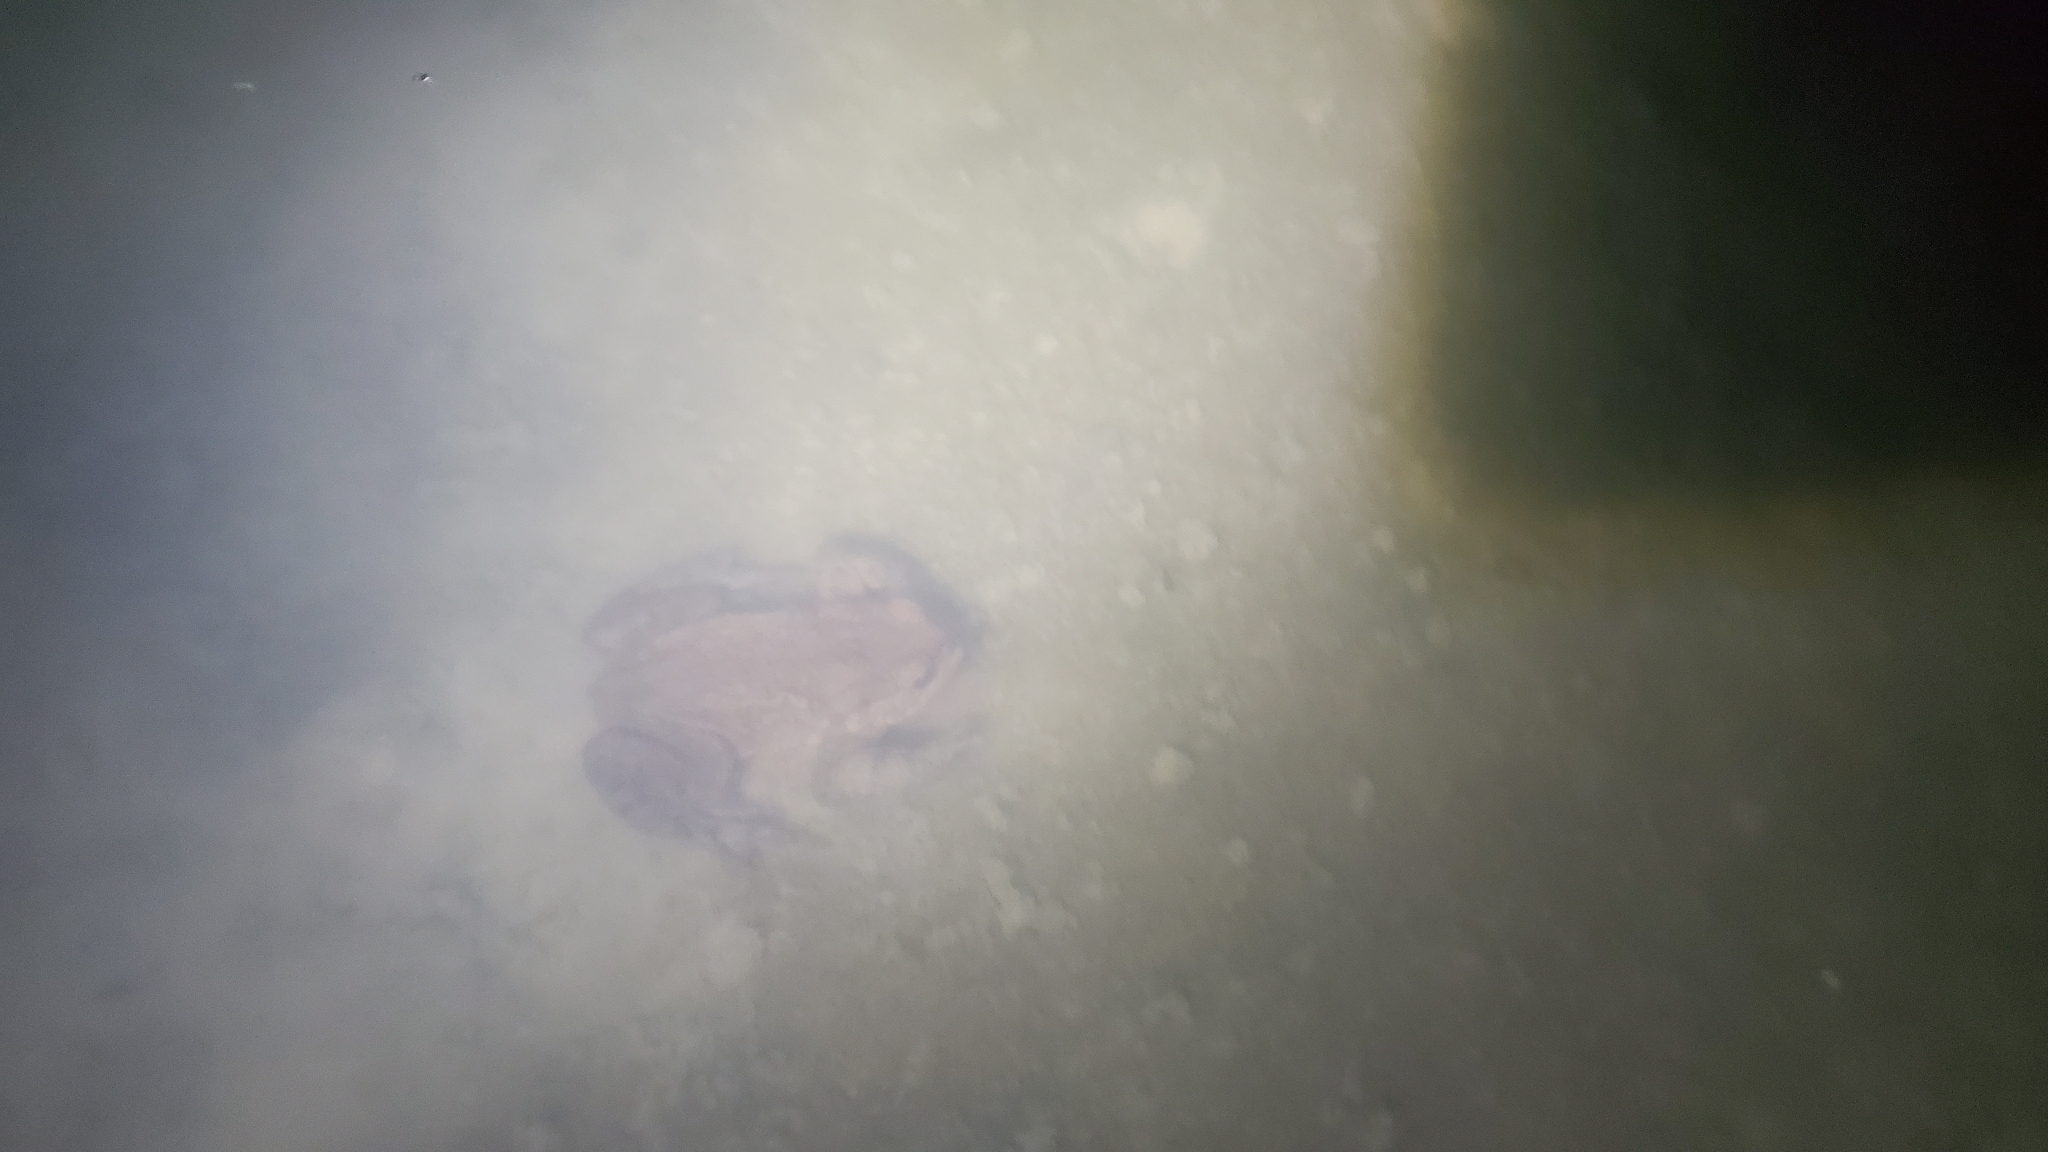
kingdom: Animalia
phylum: Chordata
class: Amphibia
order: Anura
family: Bufonidae
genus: Bufo
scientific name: Bufo bufo
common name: Common toad
